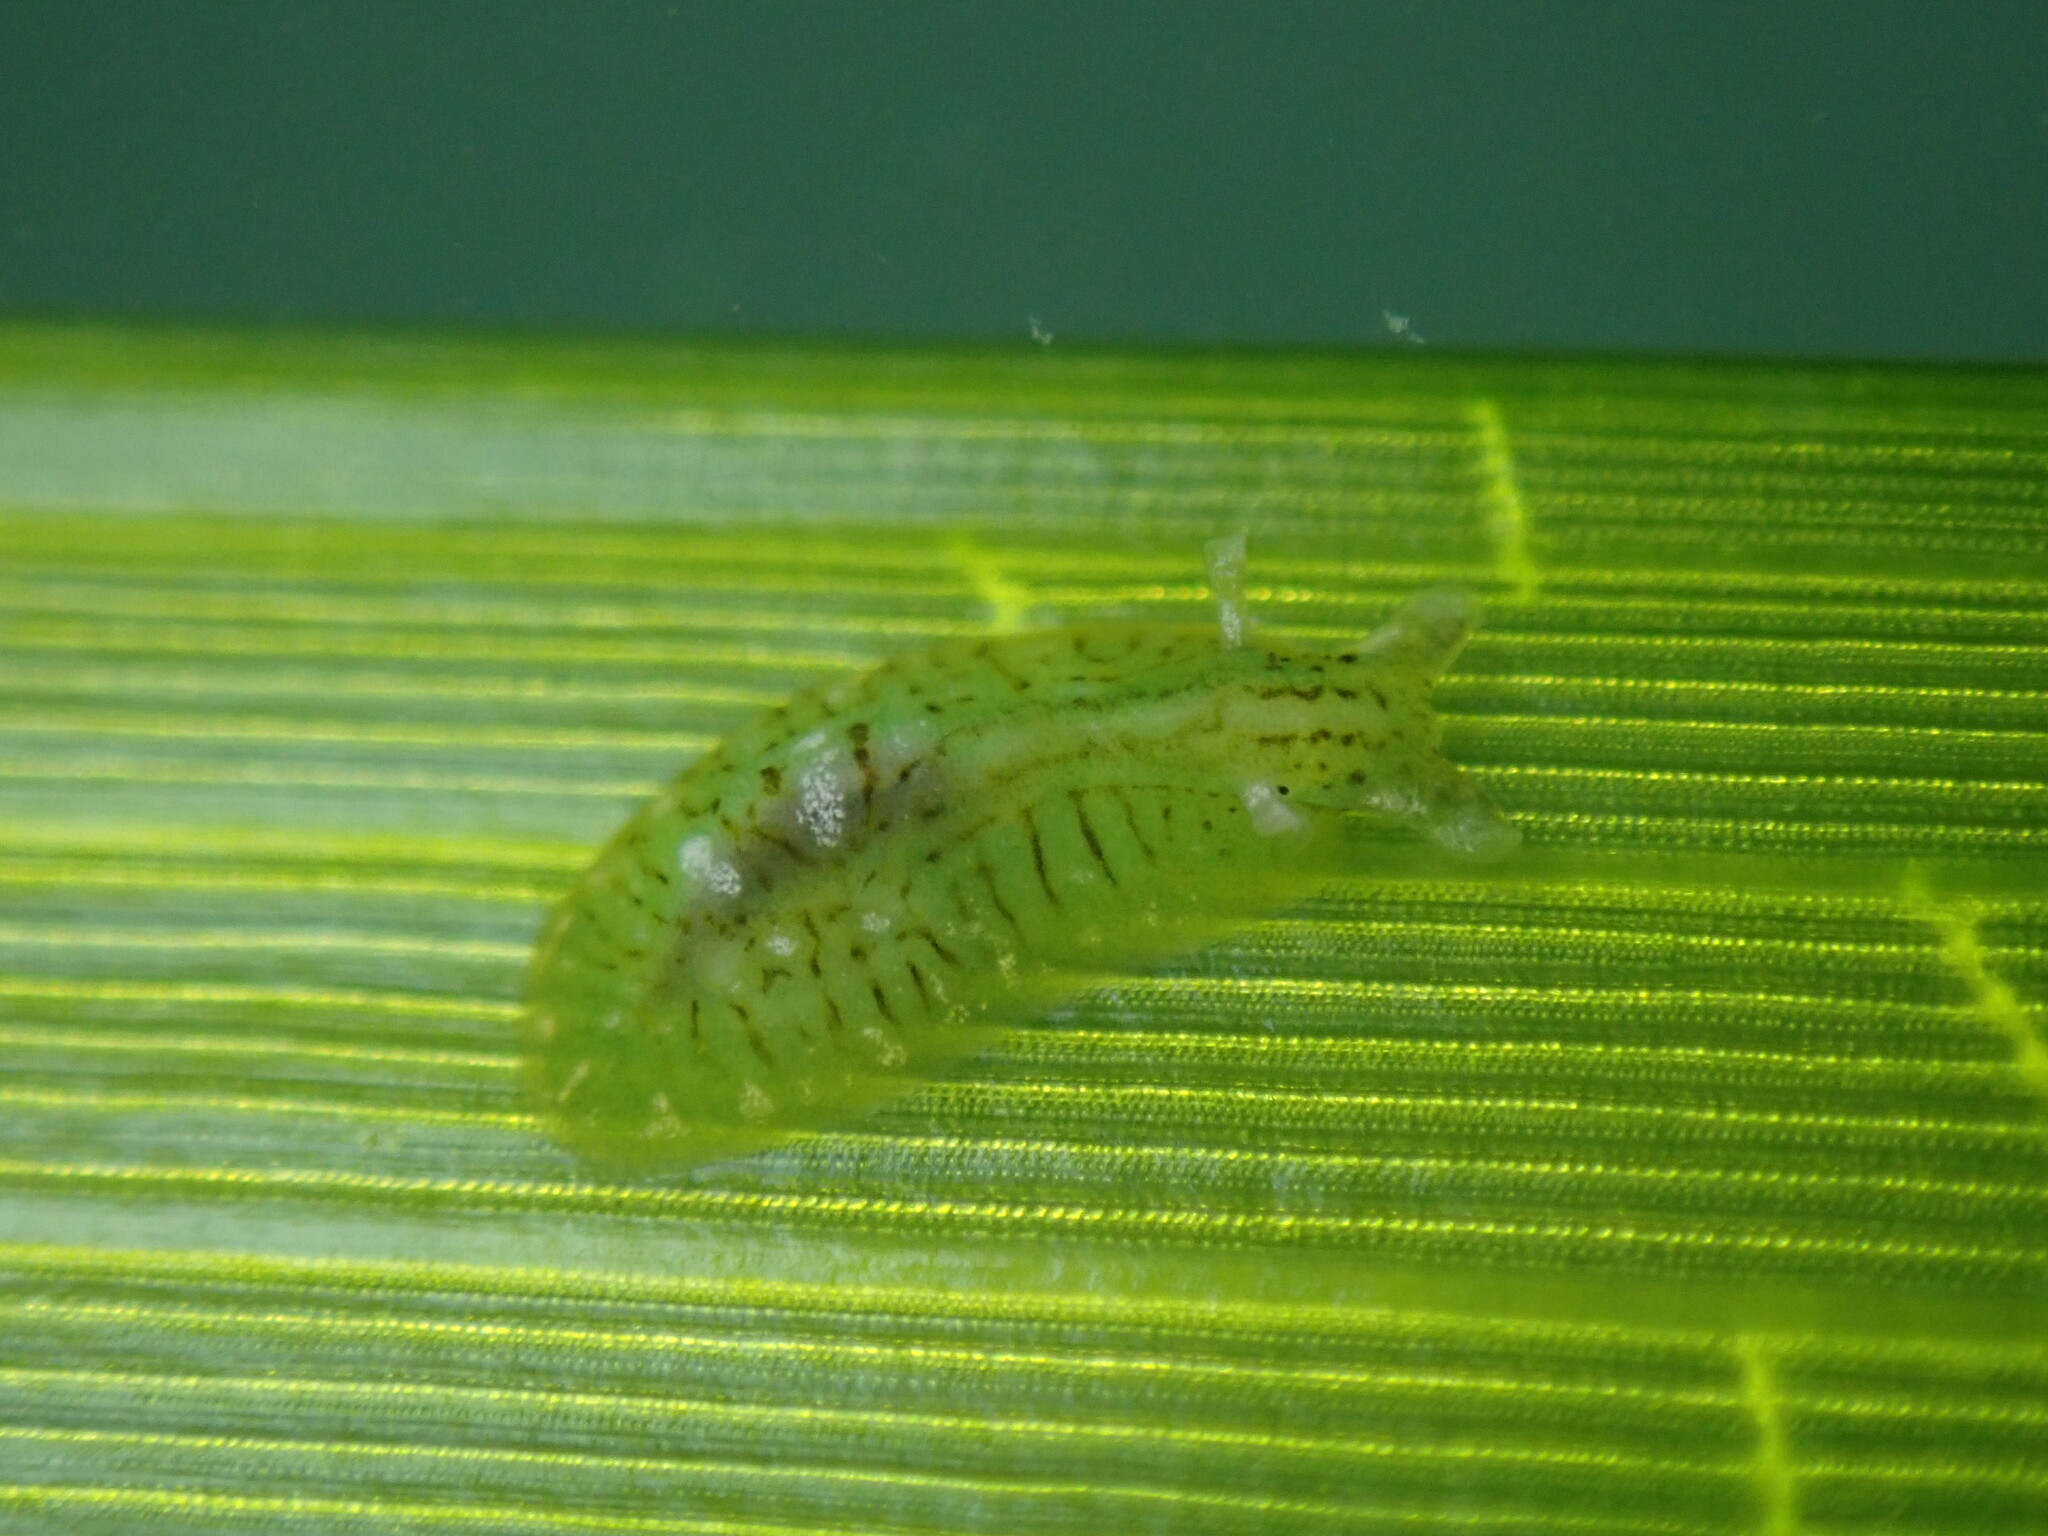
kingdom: Animalia
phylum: Mollusca
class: Gastropoda
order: Aplysiida
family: Aplysiidae
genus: Phyllaplysia
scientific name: Phyllaplysia taylori
